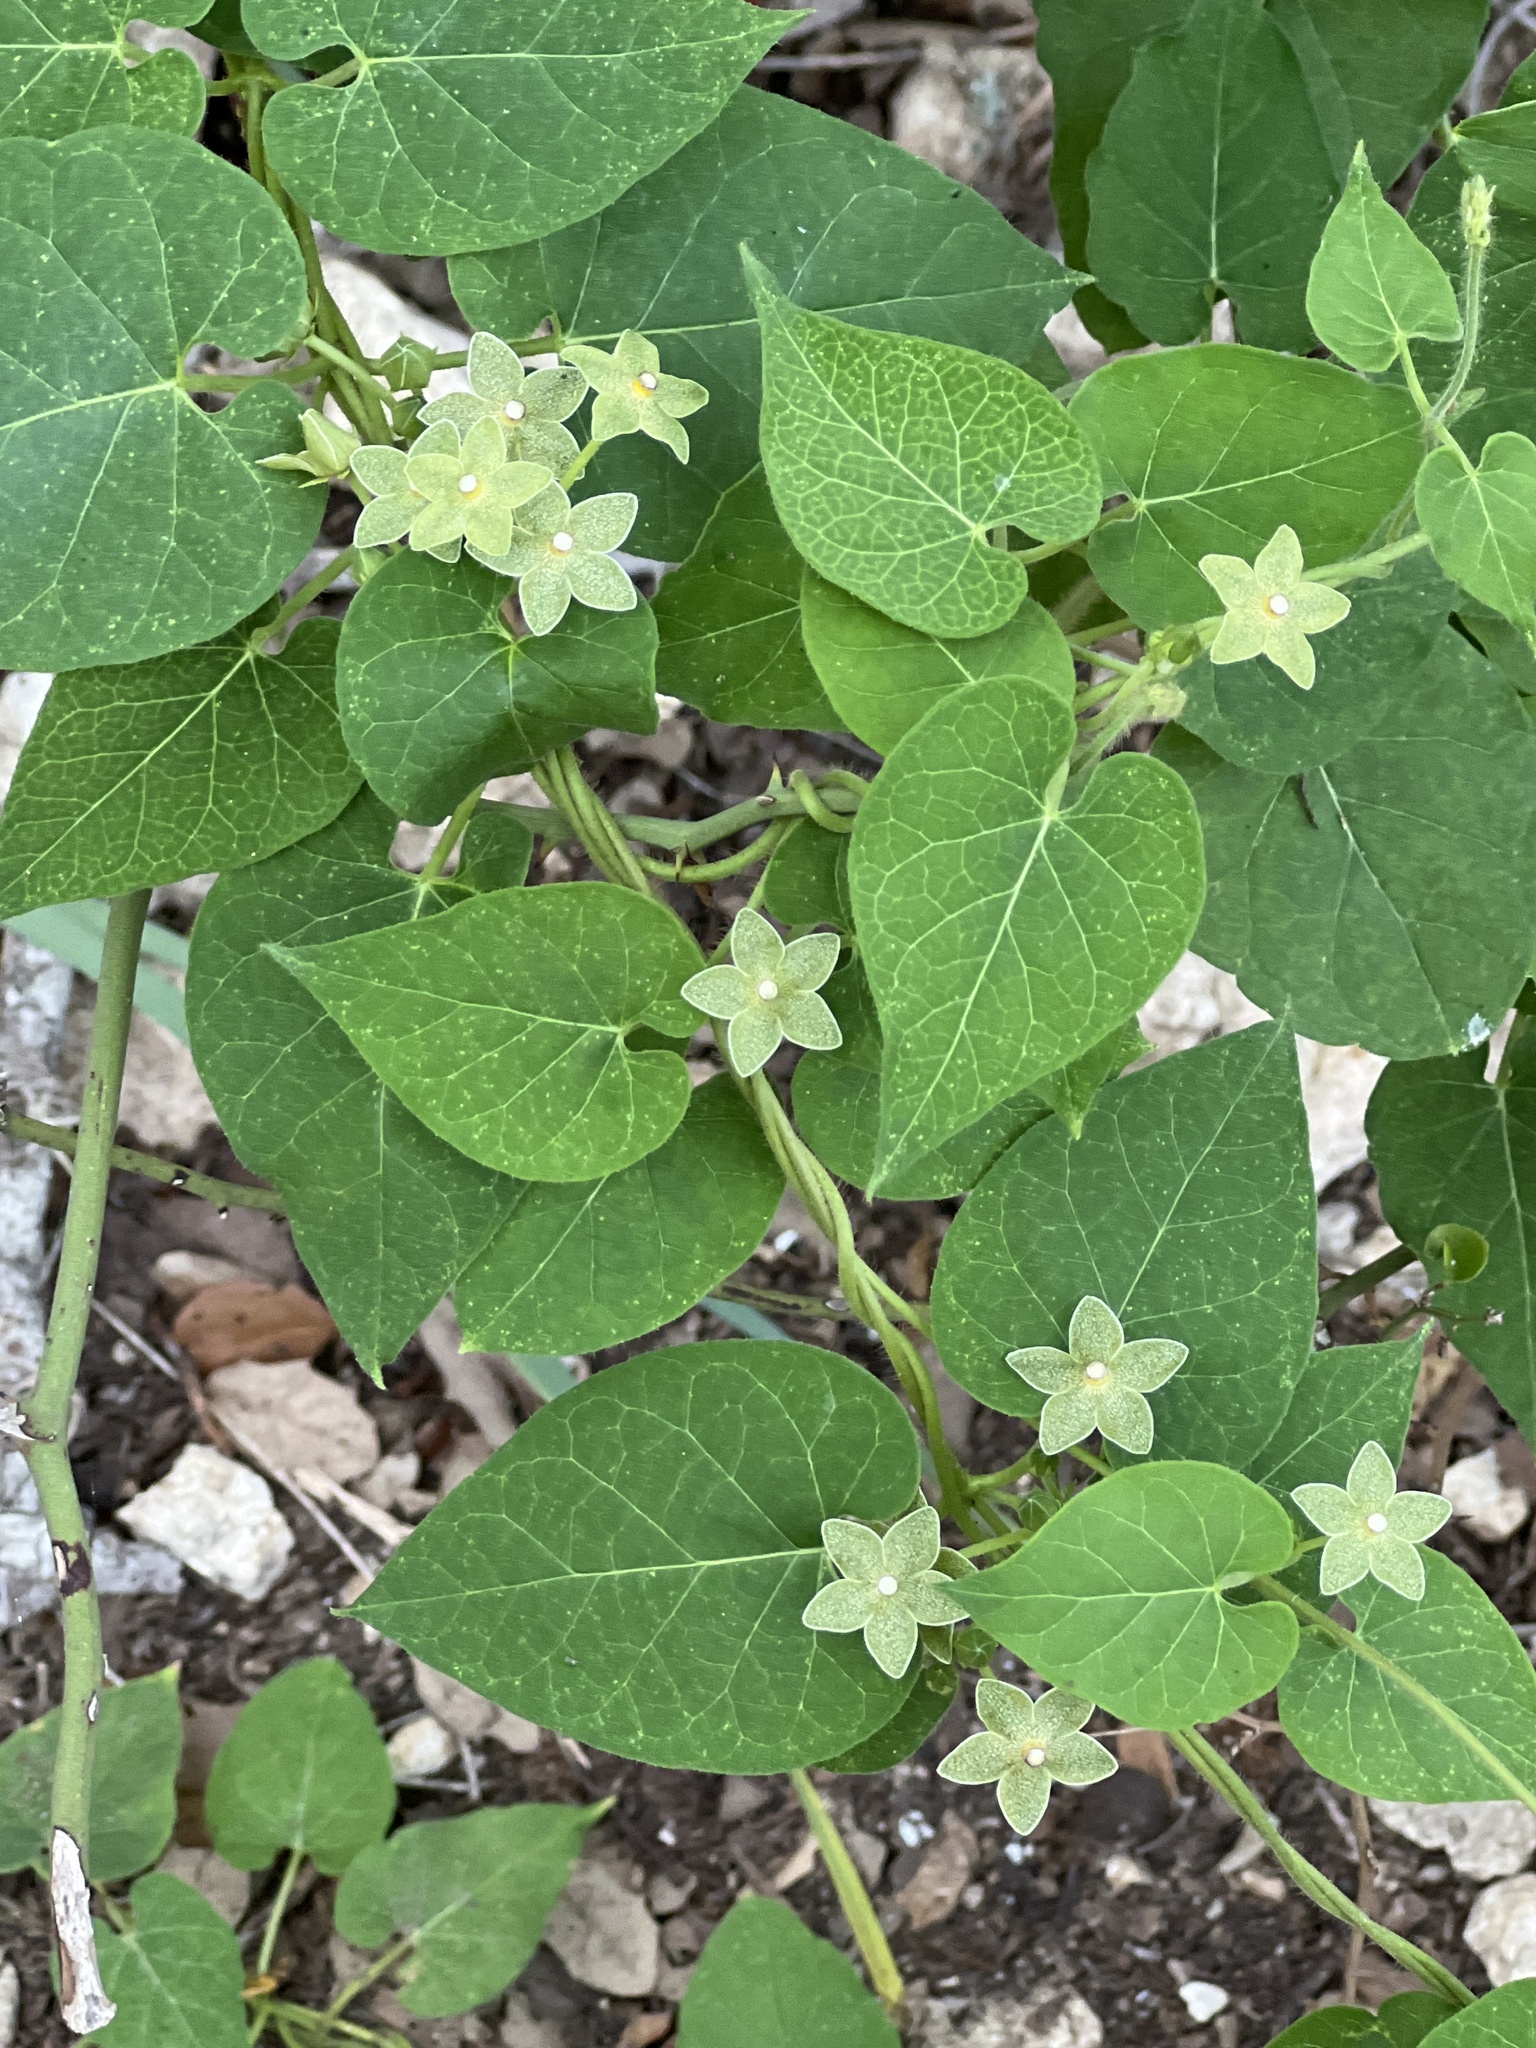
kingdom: Plantae
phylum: Tracheophyta
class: Magnoliopsida
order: Gentianales
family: Apocynaceae
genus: Dictyanthus
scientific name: Dictyanthus reticulatus
